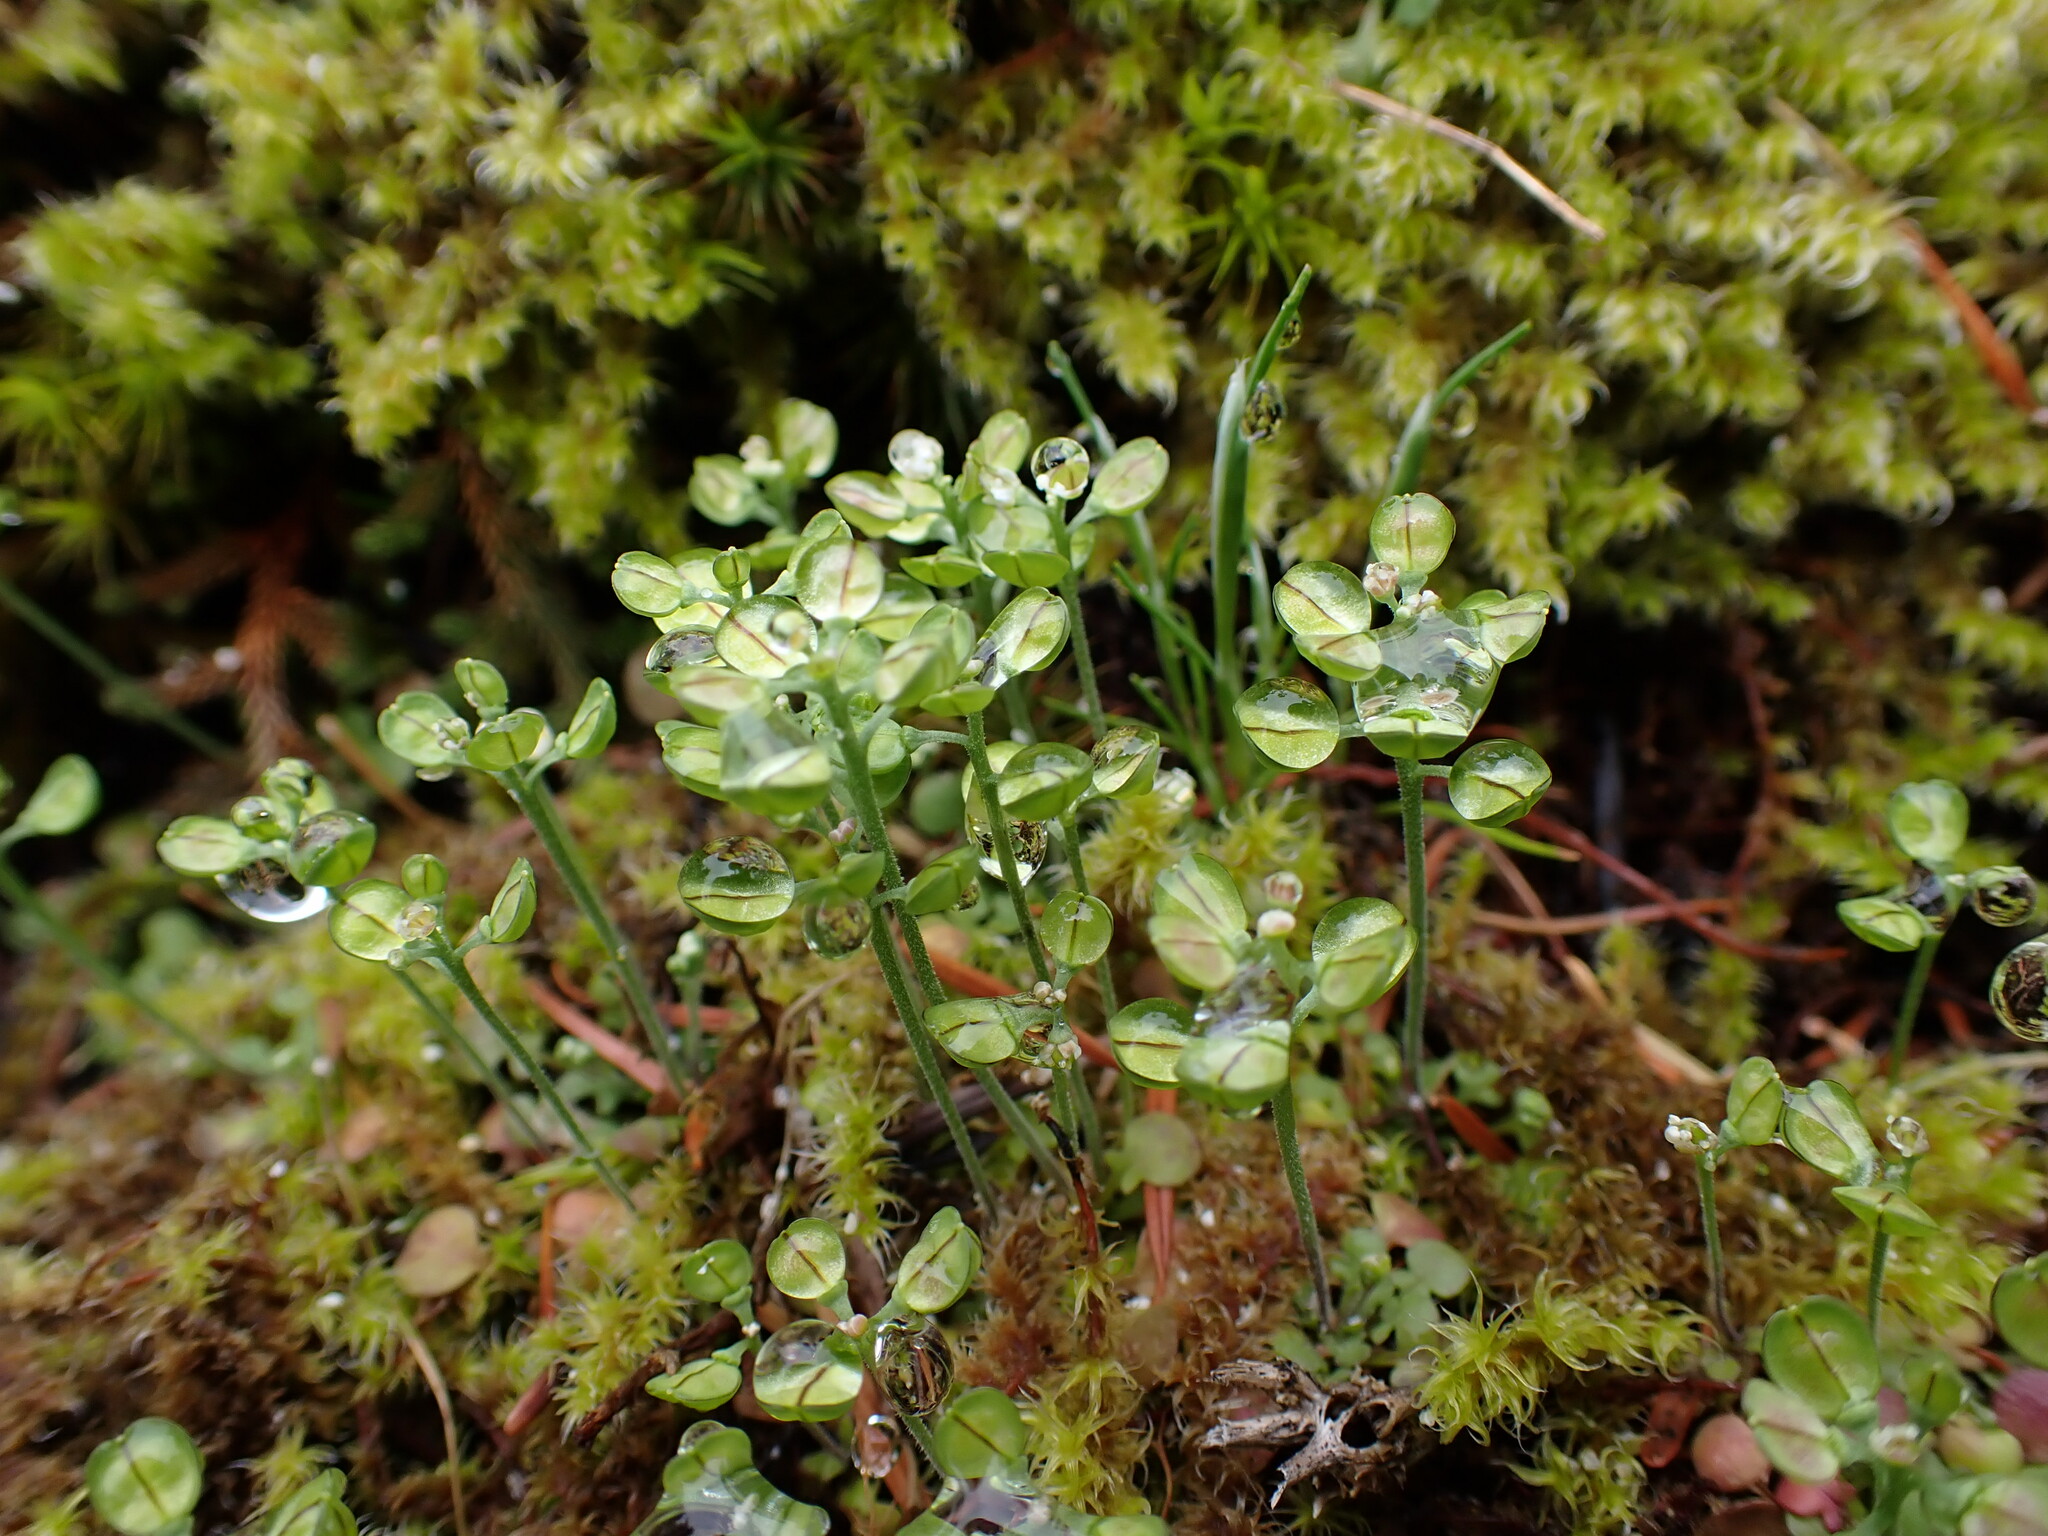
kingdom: Plantae
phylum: Tracheophyta
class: Magnoliopsida
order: Brassicales
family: Brassicaceae
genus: Teesdalia
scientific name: Teesdalia nudicaulis
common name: Shepherd's cress
